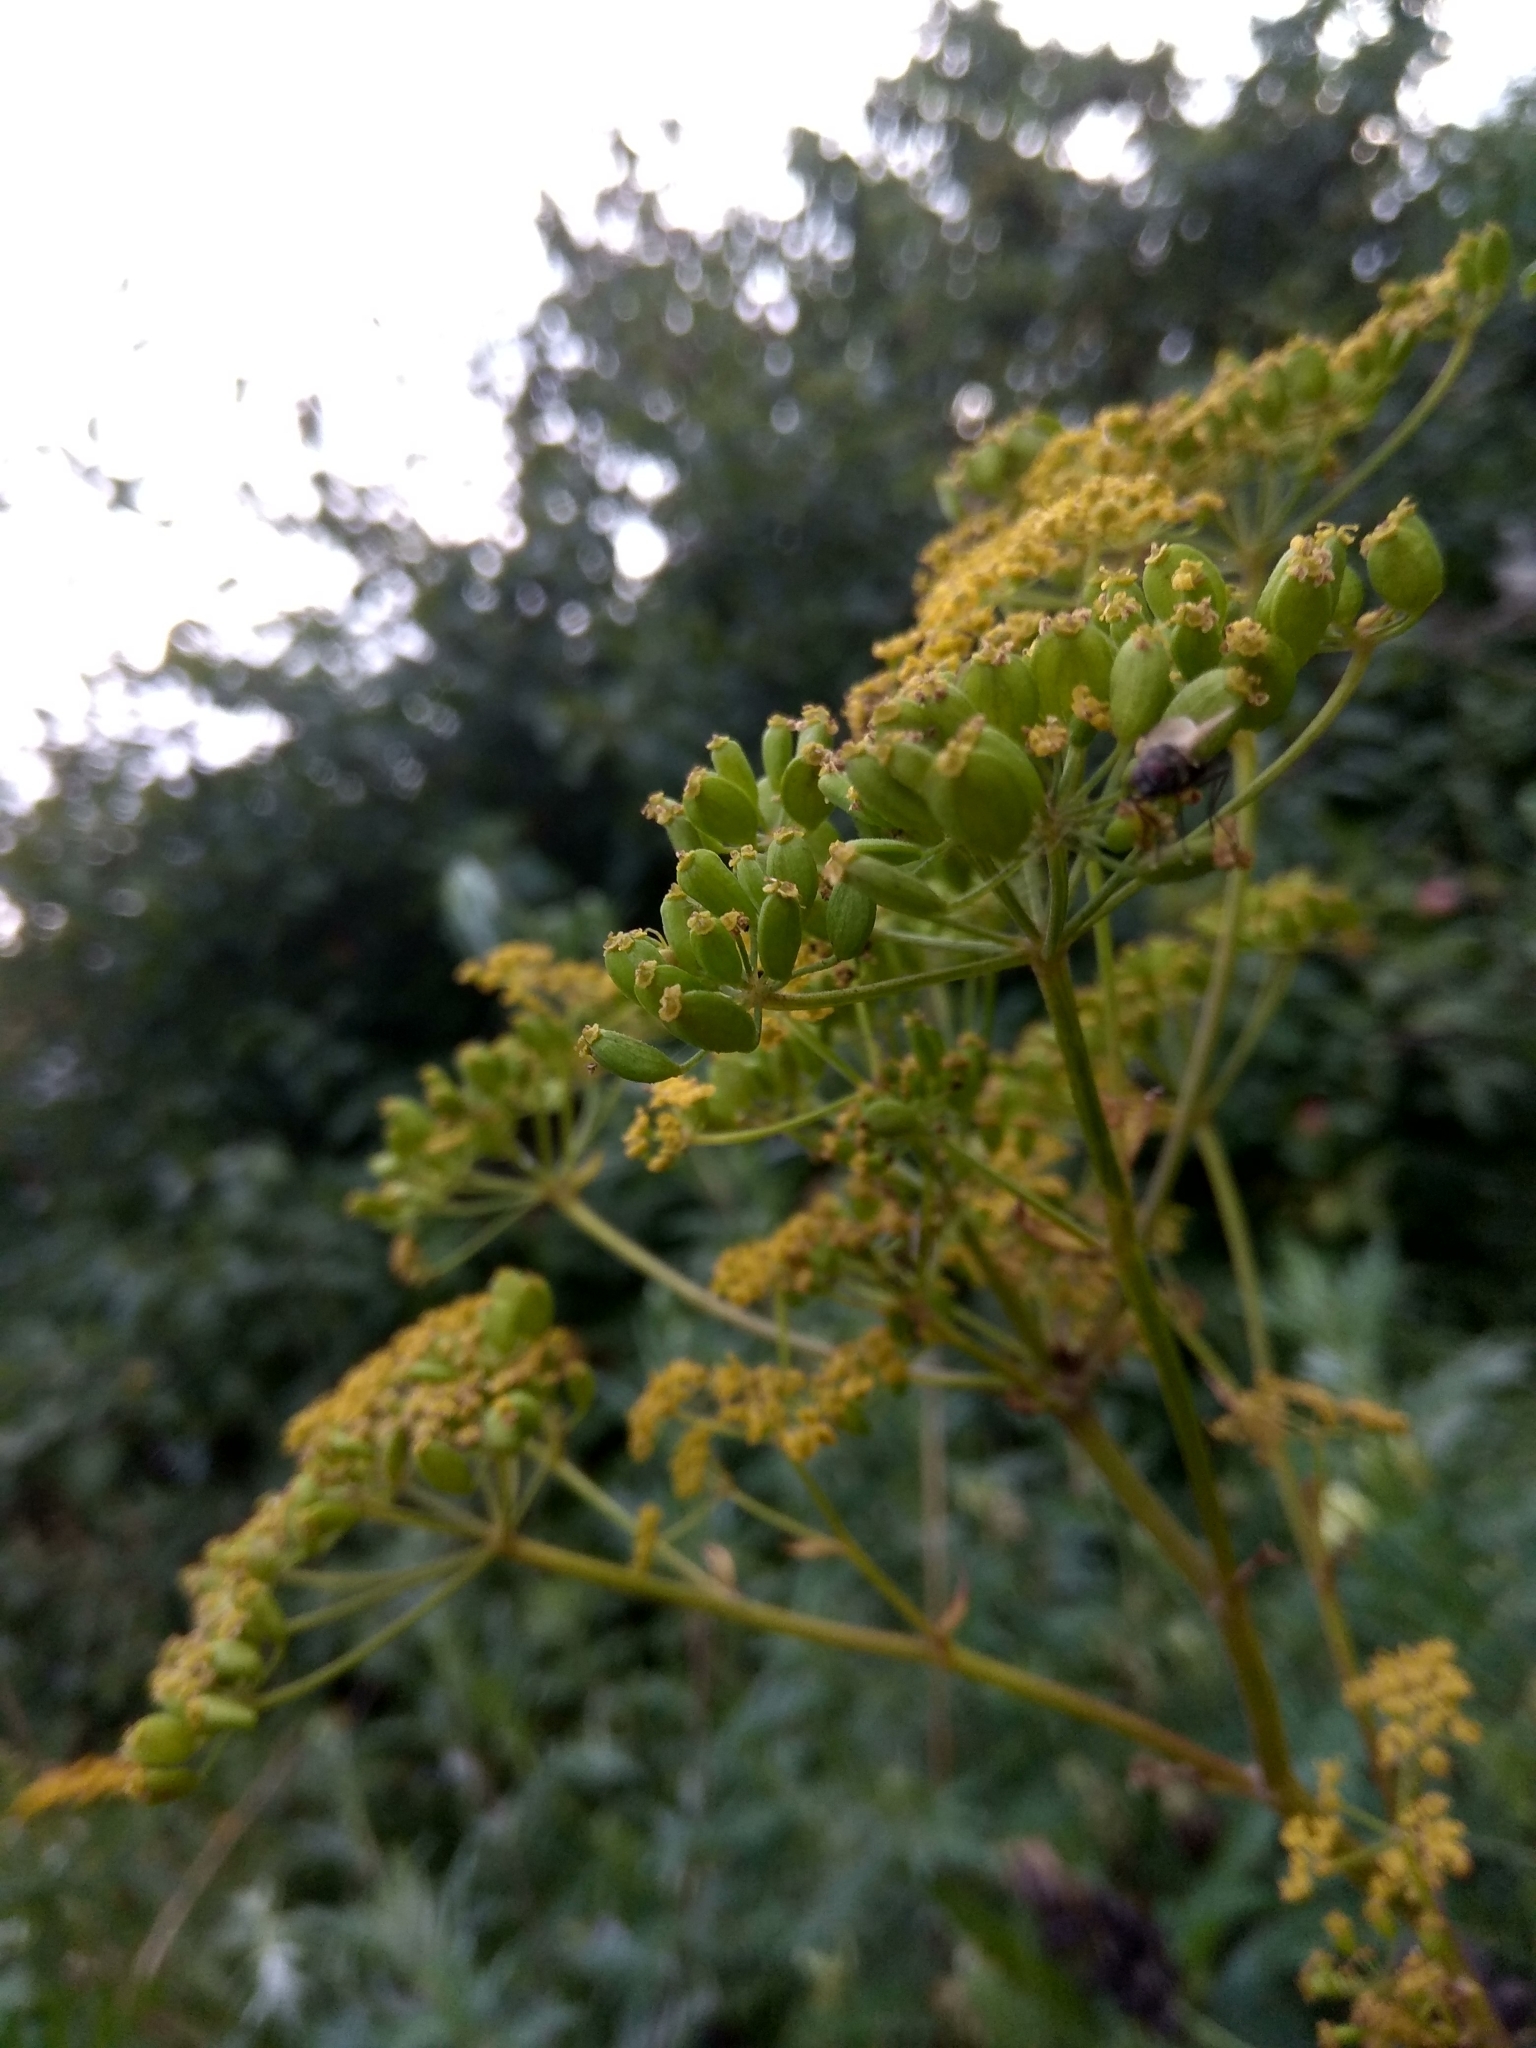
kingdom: Plantae
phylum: Tracheophyta
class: Magnoliopsida
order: Apiales
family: Apiaceae
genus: Pastinaca
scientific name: Pastinaca sativa
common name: Wild parsnip
